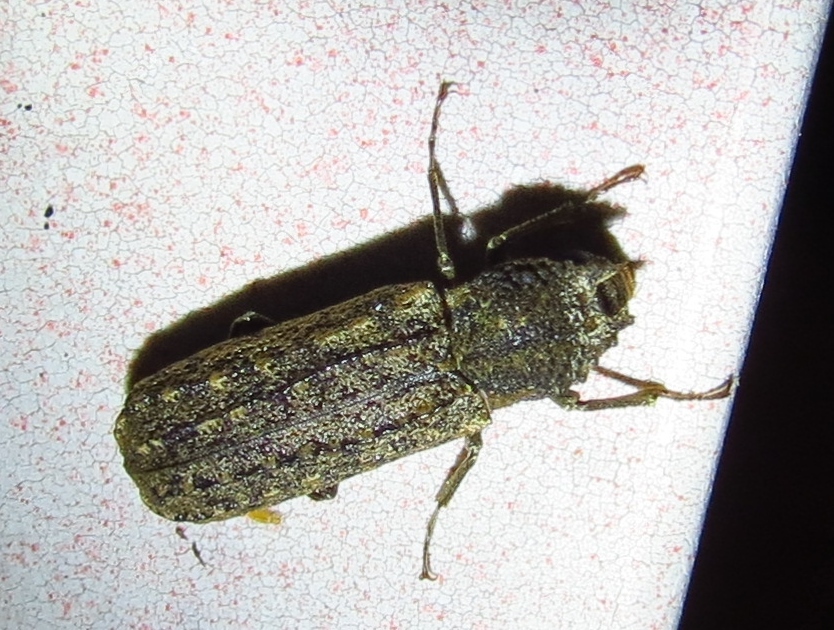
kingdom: Animalia
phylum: Arthropoda
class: Insecta
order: Coleoptera
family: Bostrichidae
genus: Lichenophanes
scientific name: Lichenophanes bicornis
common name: Two-horned powder-post beetle
